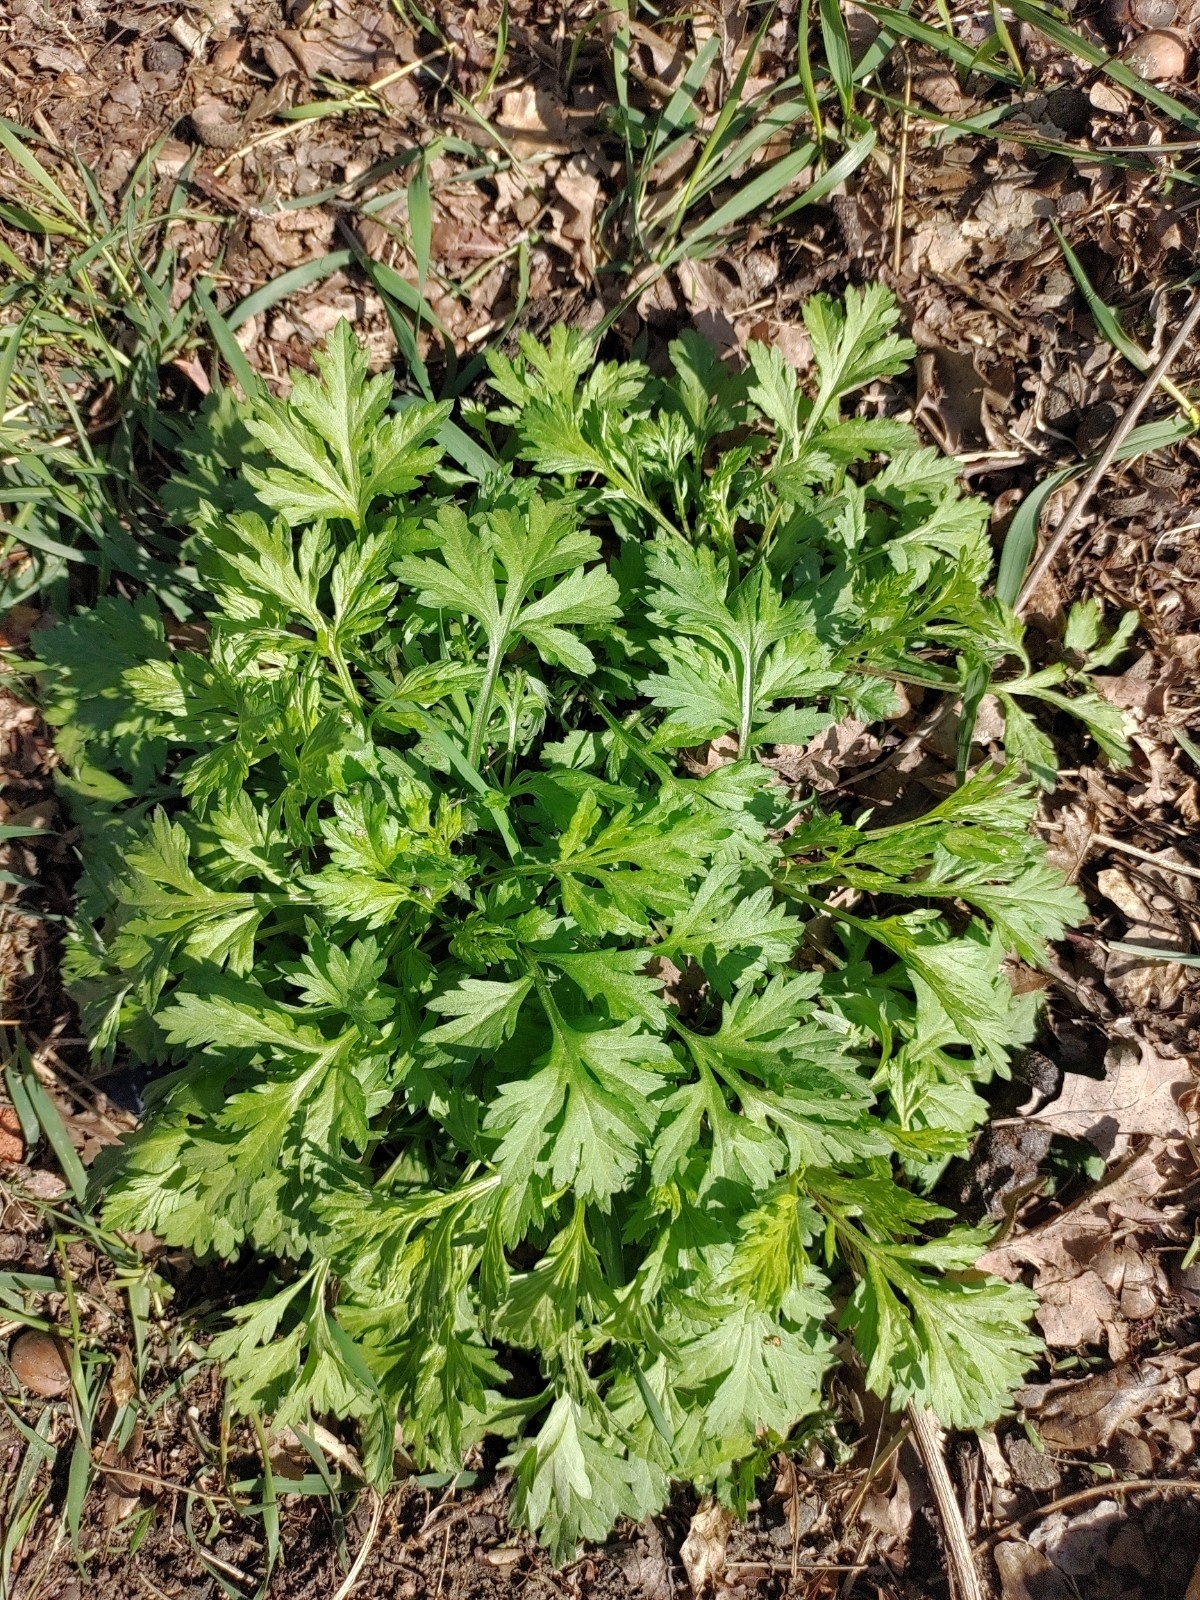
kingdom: Plantae
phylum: Tracheophyta
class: Magnoliopsida
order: Asterales
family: Asteraceae
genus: Artemisia
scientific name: Artemisia vulgaris
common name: Mugwort
